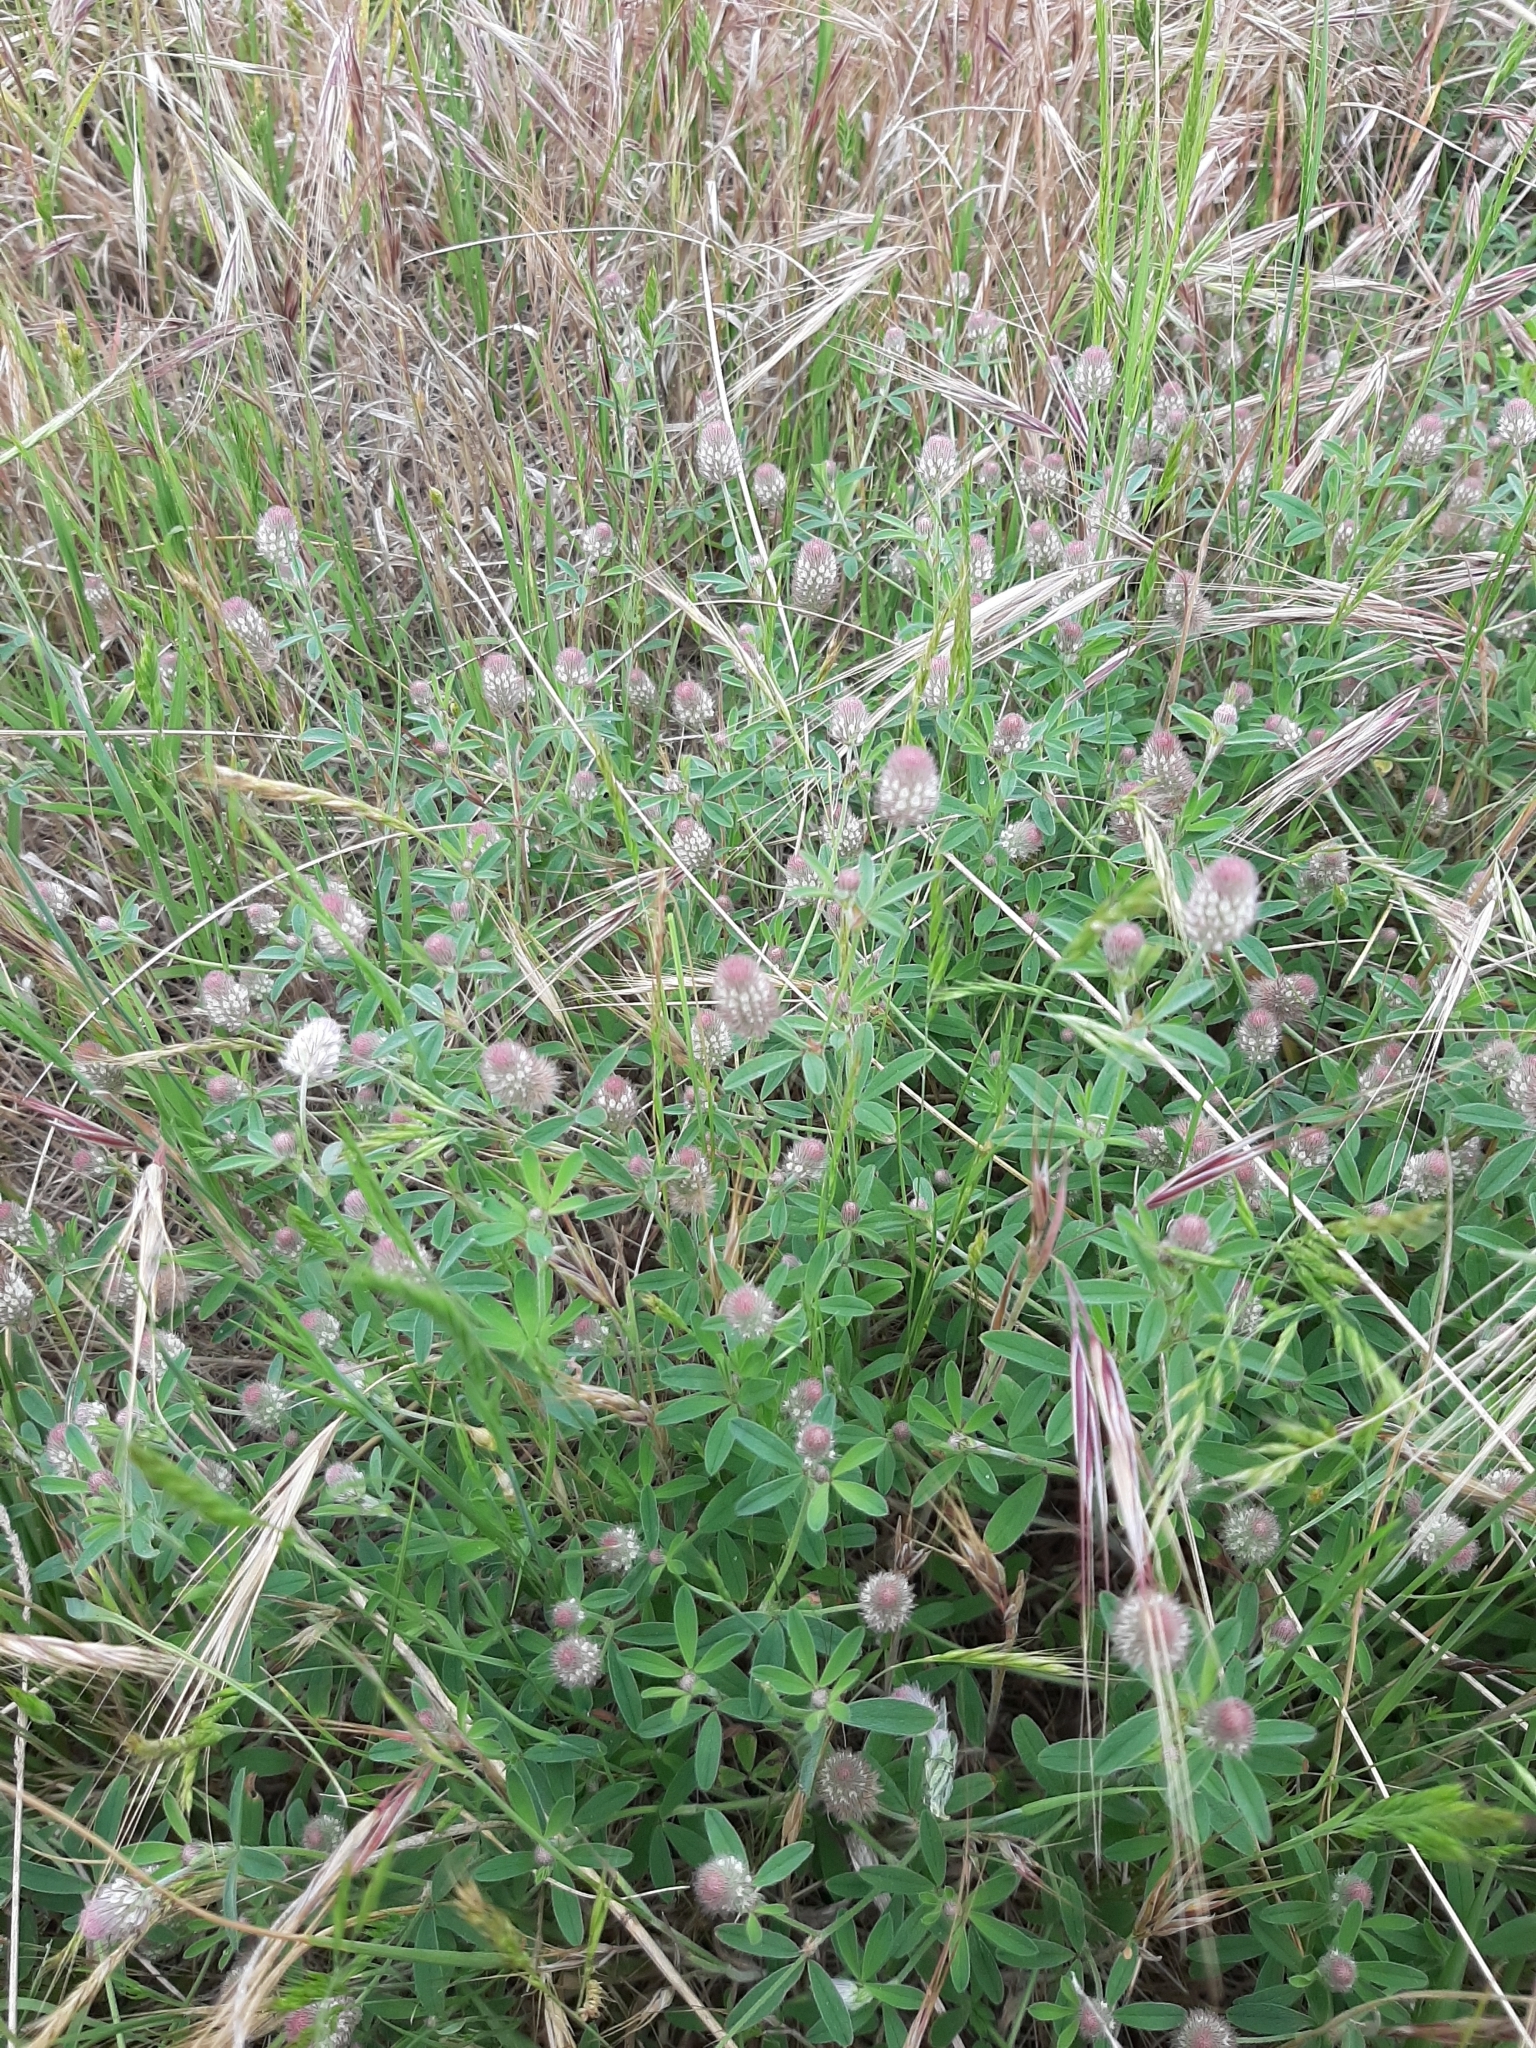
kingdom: Plantae
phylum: Tracheophyta
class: Magnoliopsida
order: Fabales
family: Fabaceae
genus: Trifolium
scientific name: Trifolium arvense
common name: Hare's-foot clover
